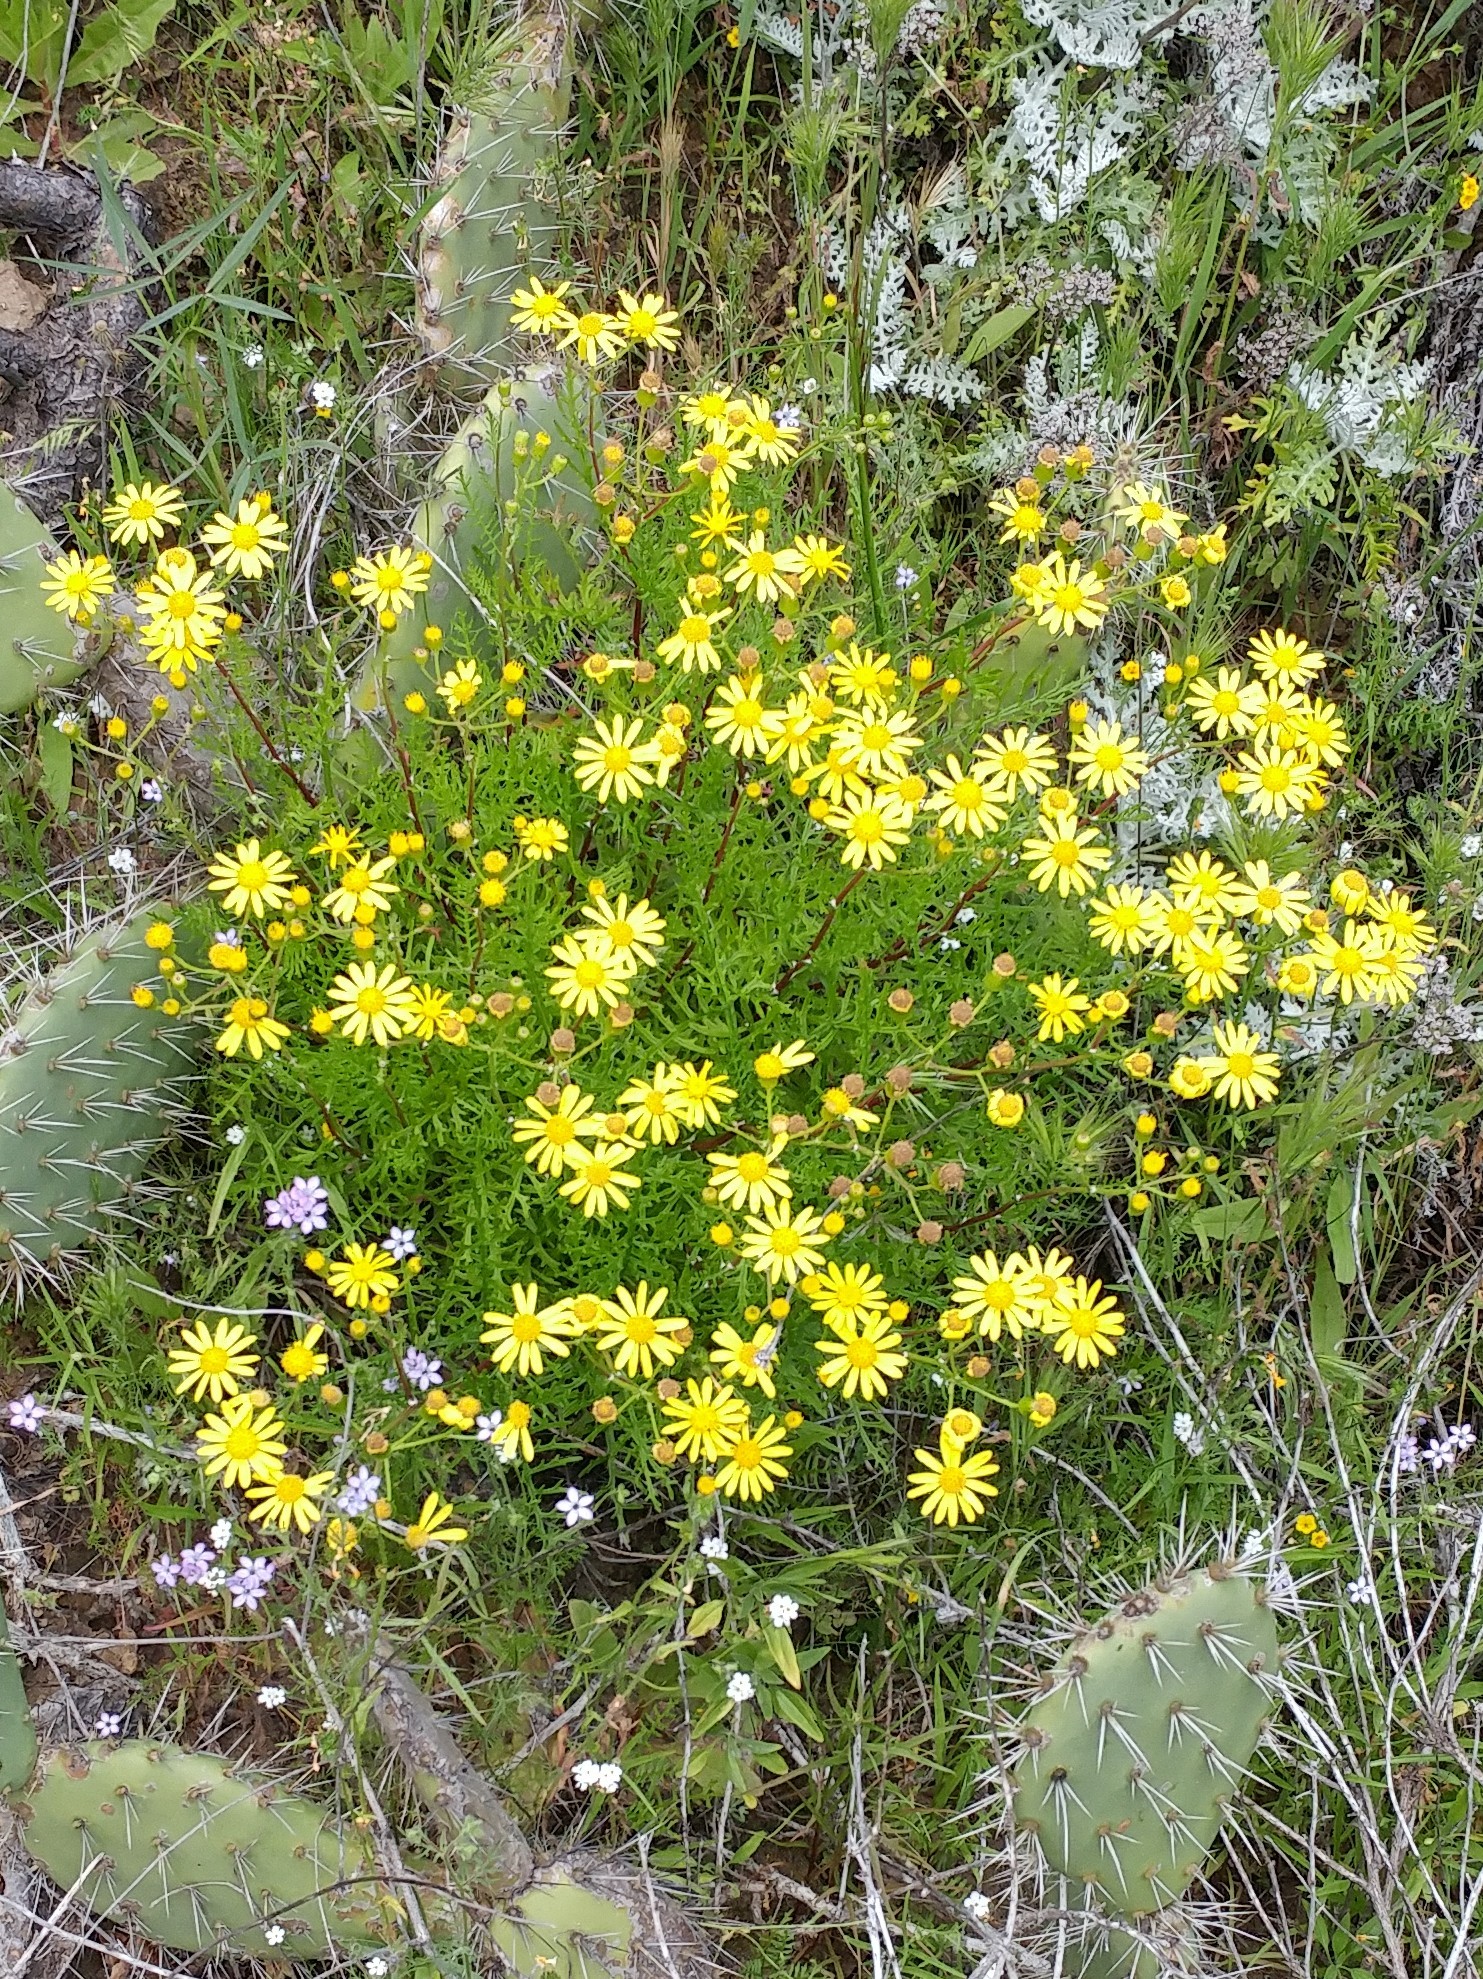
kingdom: Plantae
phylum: Tracheophyta
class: Magnoliopsida
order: Asterales
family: Asteraceae
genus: Senecio
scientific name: Senecio lyonii
